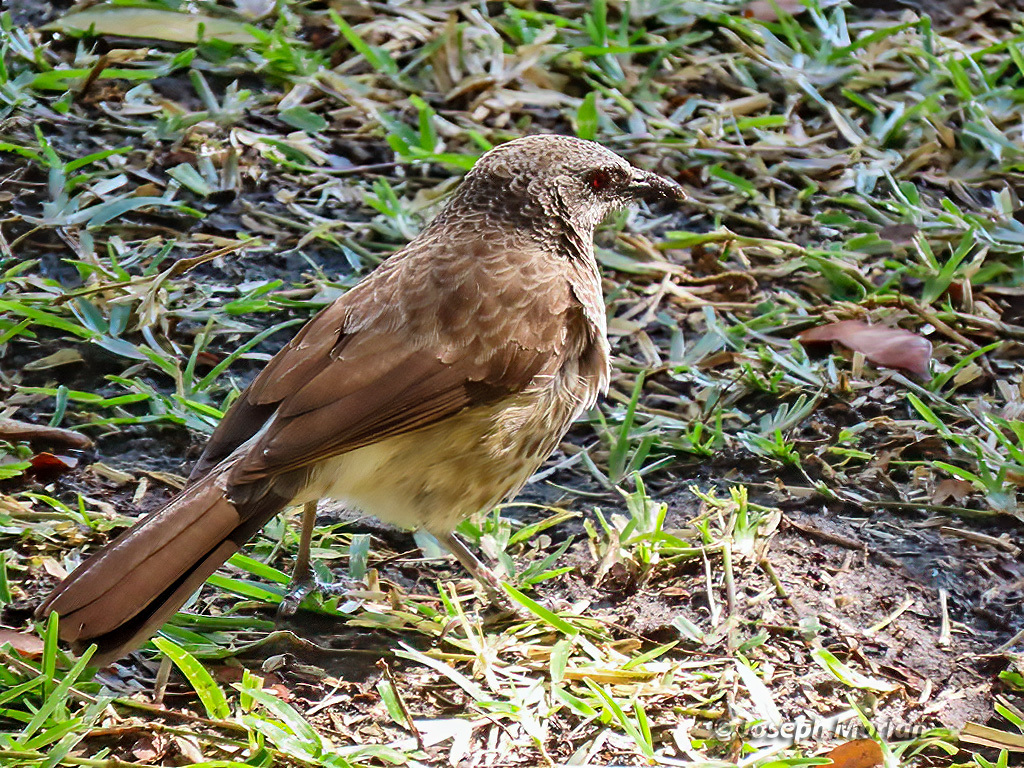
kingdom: Animalia
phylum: Chordata
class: Aves
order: Passeriformes
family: Leiothrichidae
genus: Turdoides
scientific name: Turdoides hartlaubii
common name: Hartlaub's babbler
